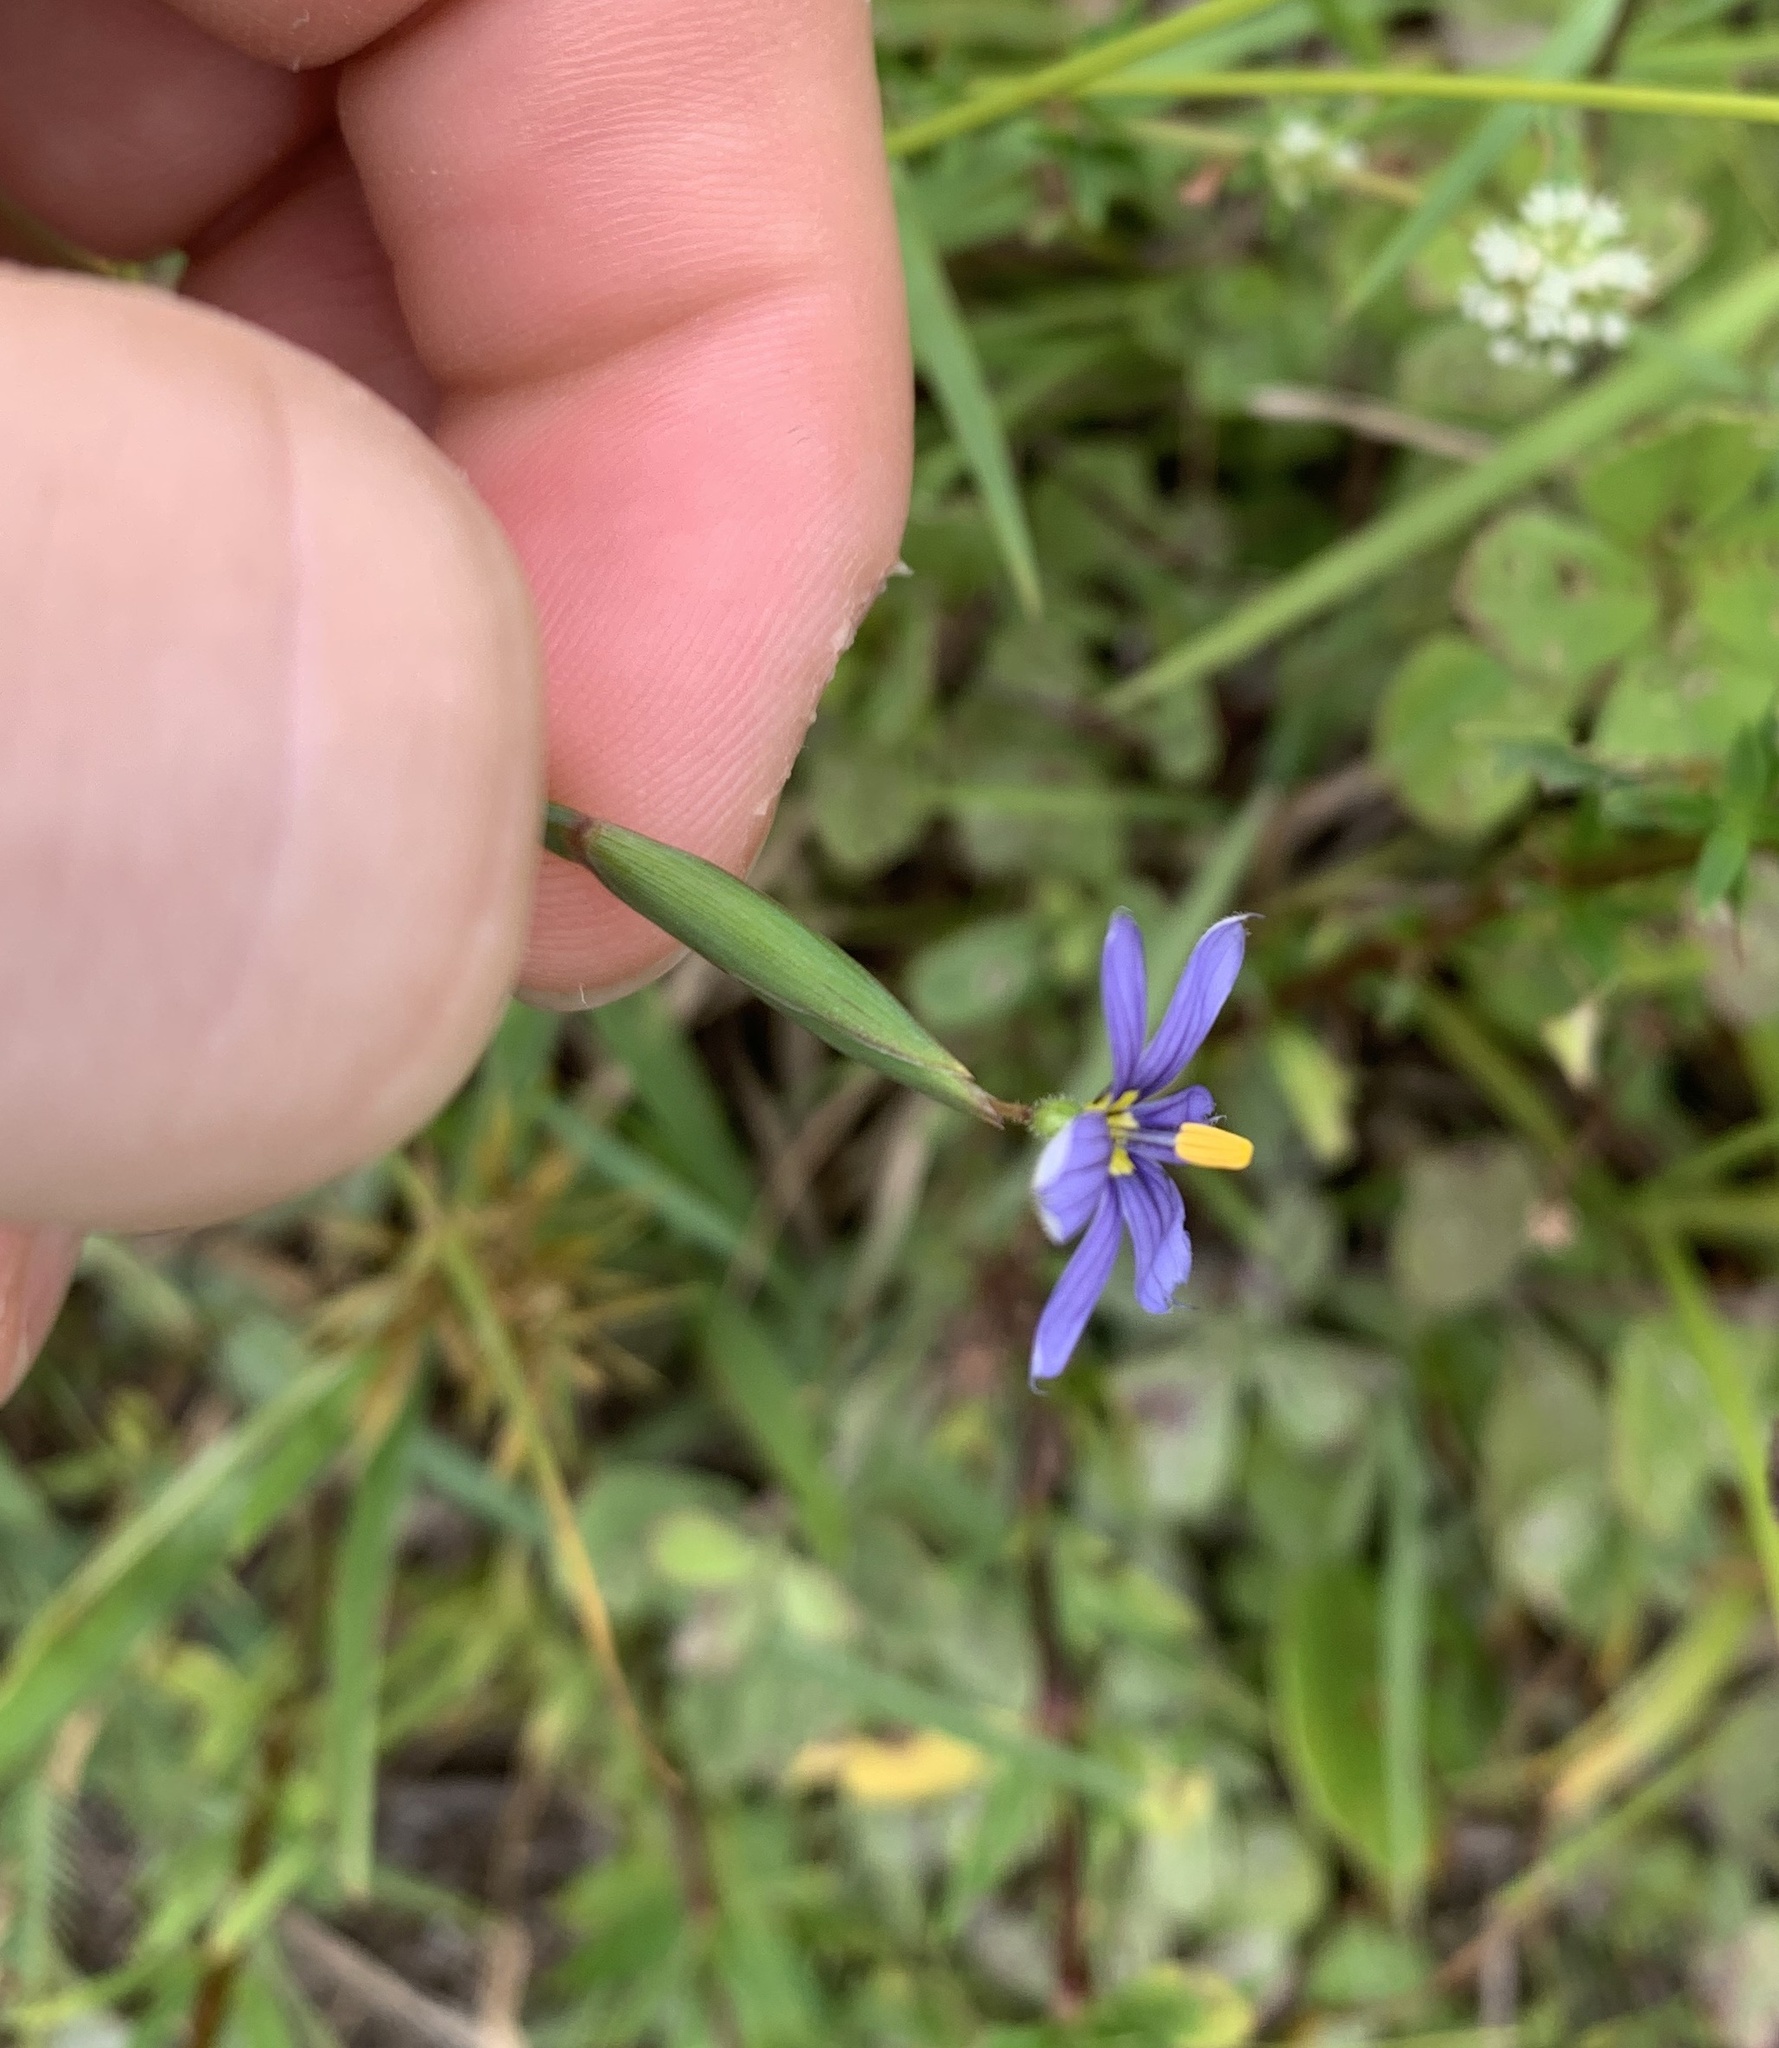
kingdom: Plantae
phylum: Tracheophyta
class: Liliopsida
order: Asparagales
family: Iridaceae
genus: Sisyrinchium
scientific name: Sisyrinchium angustifolium
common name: Narrow-leaf blue-eyed-grass
